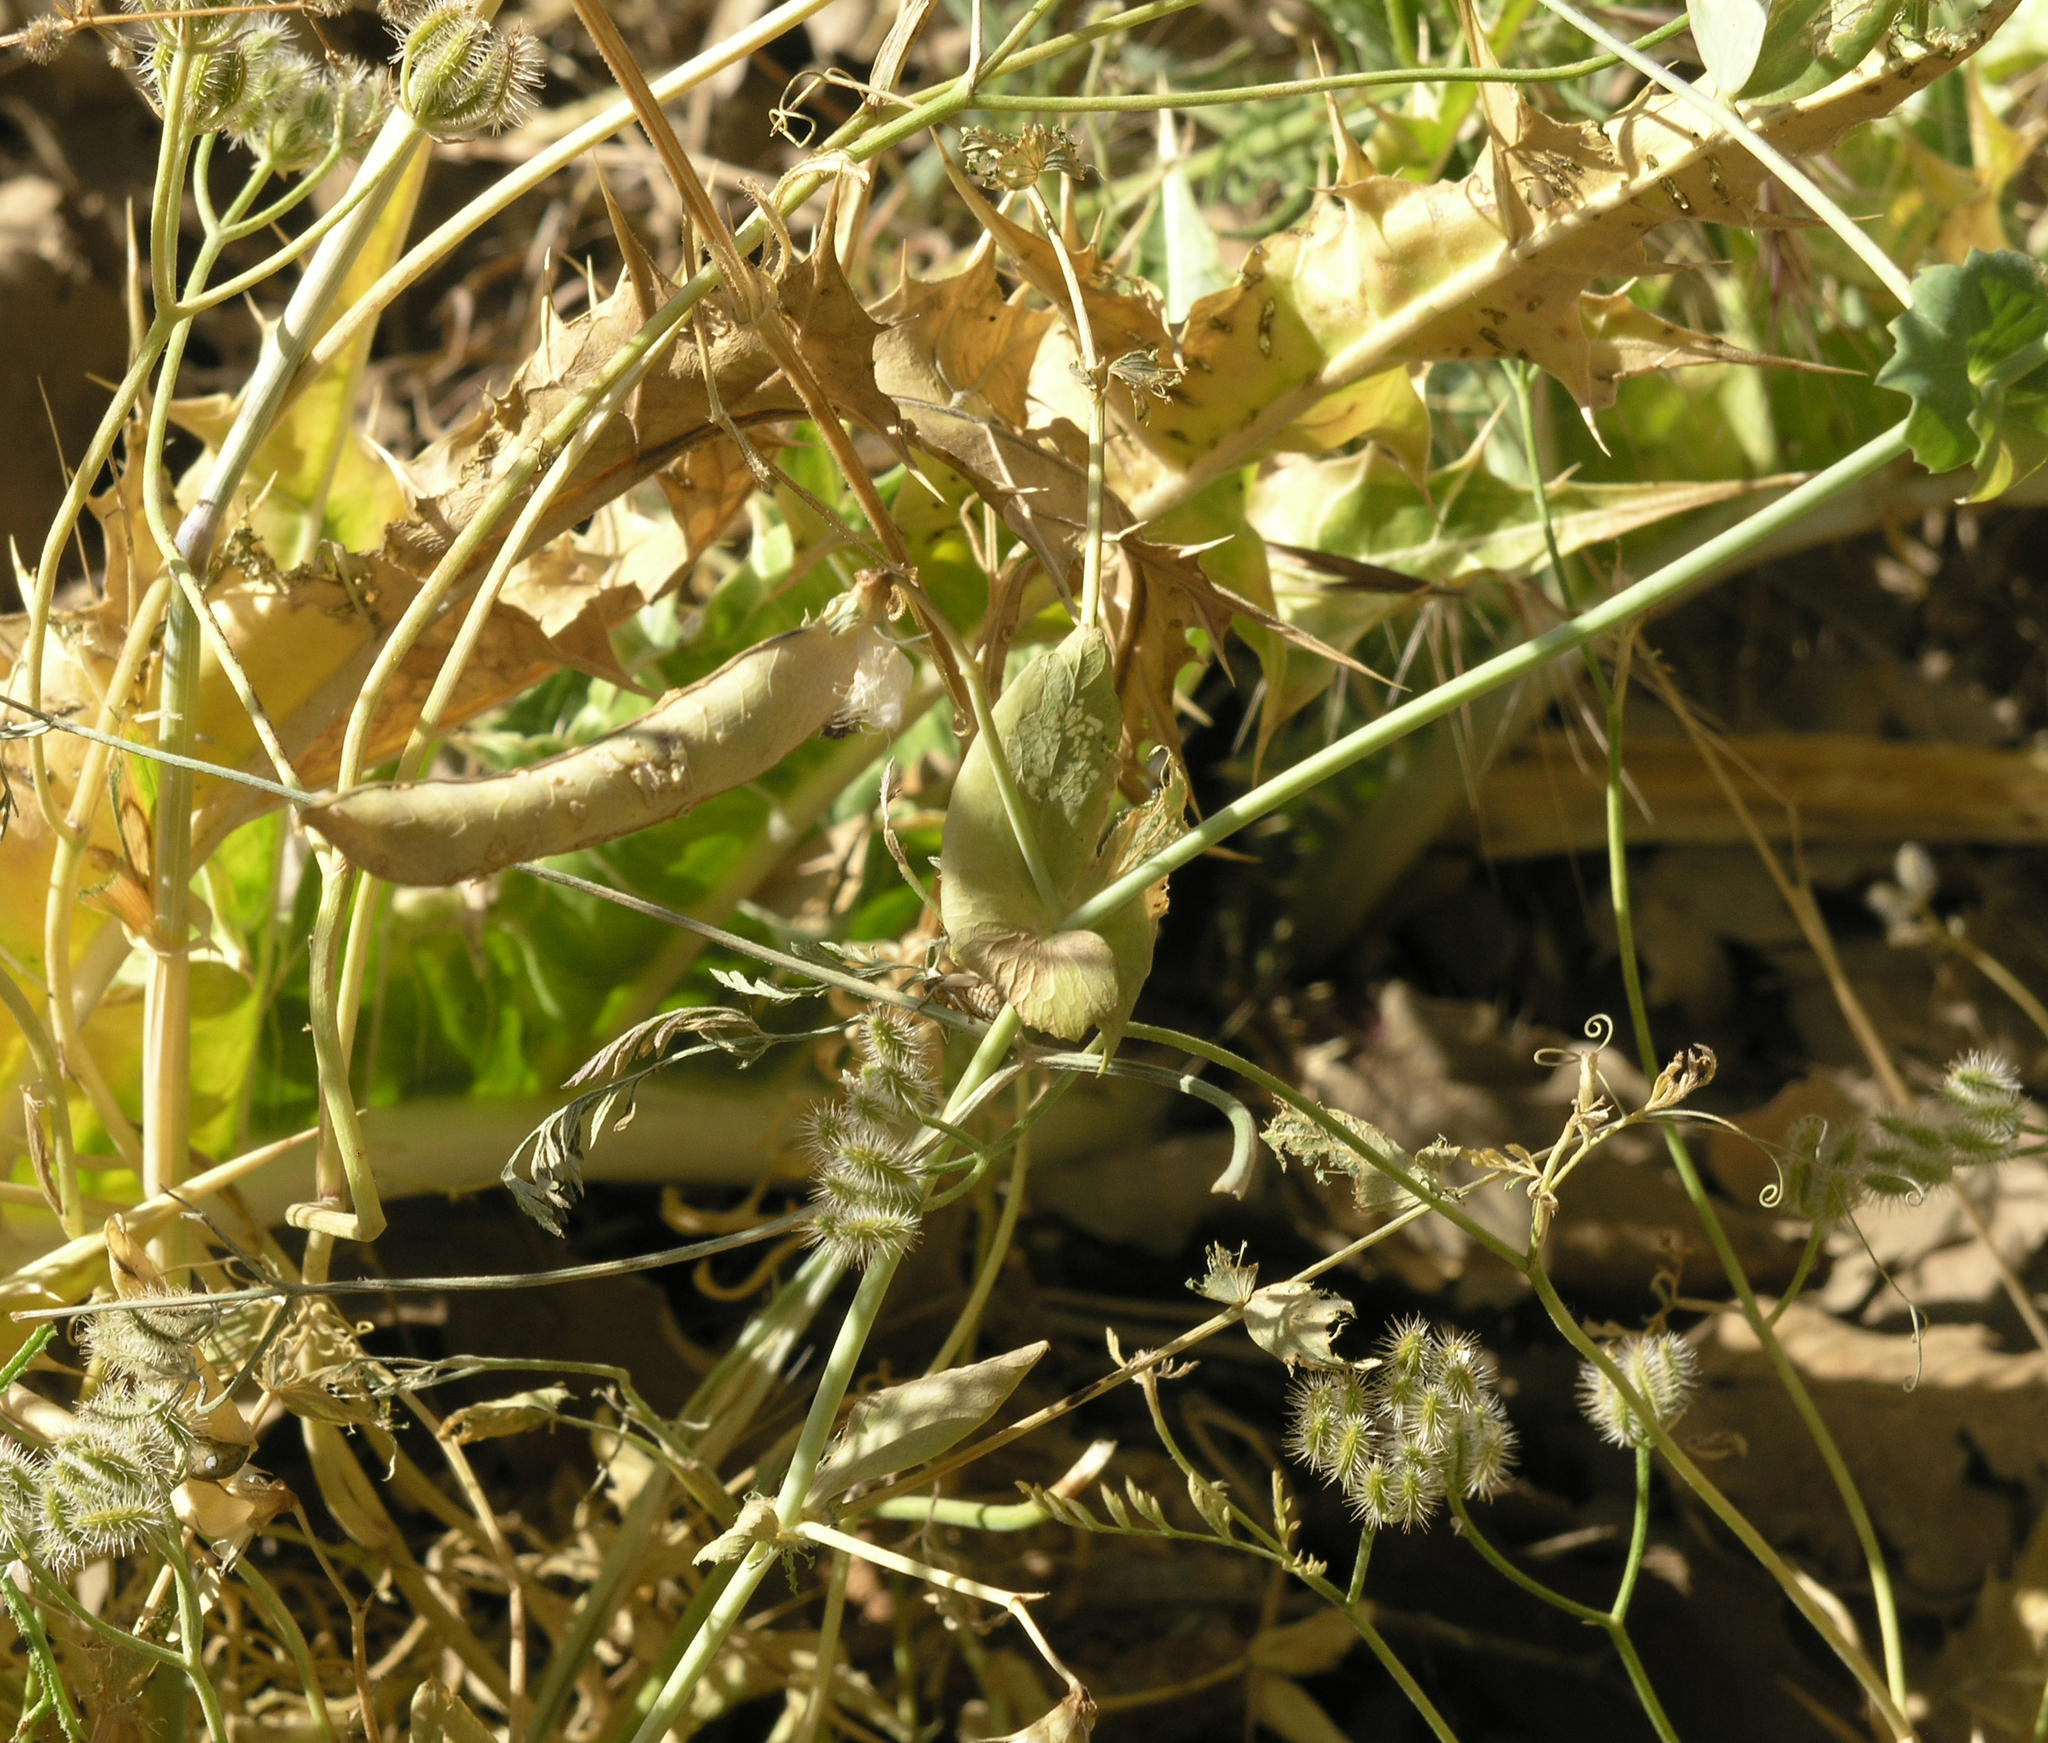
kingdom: Plantae
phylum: Tracheophyta
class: Magnoliopsida
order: Fabales
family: Fabaceae
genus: Lathyrus
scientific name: Lathyrus oleraceus
